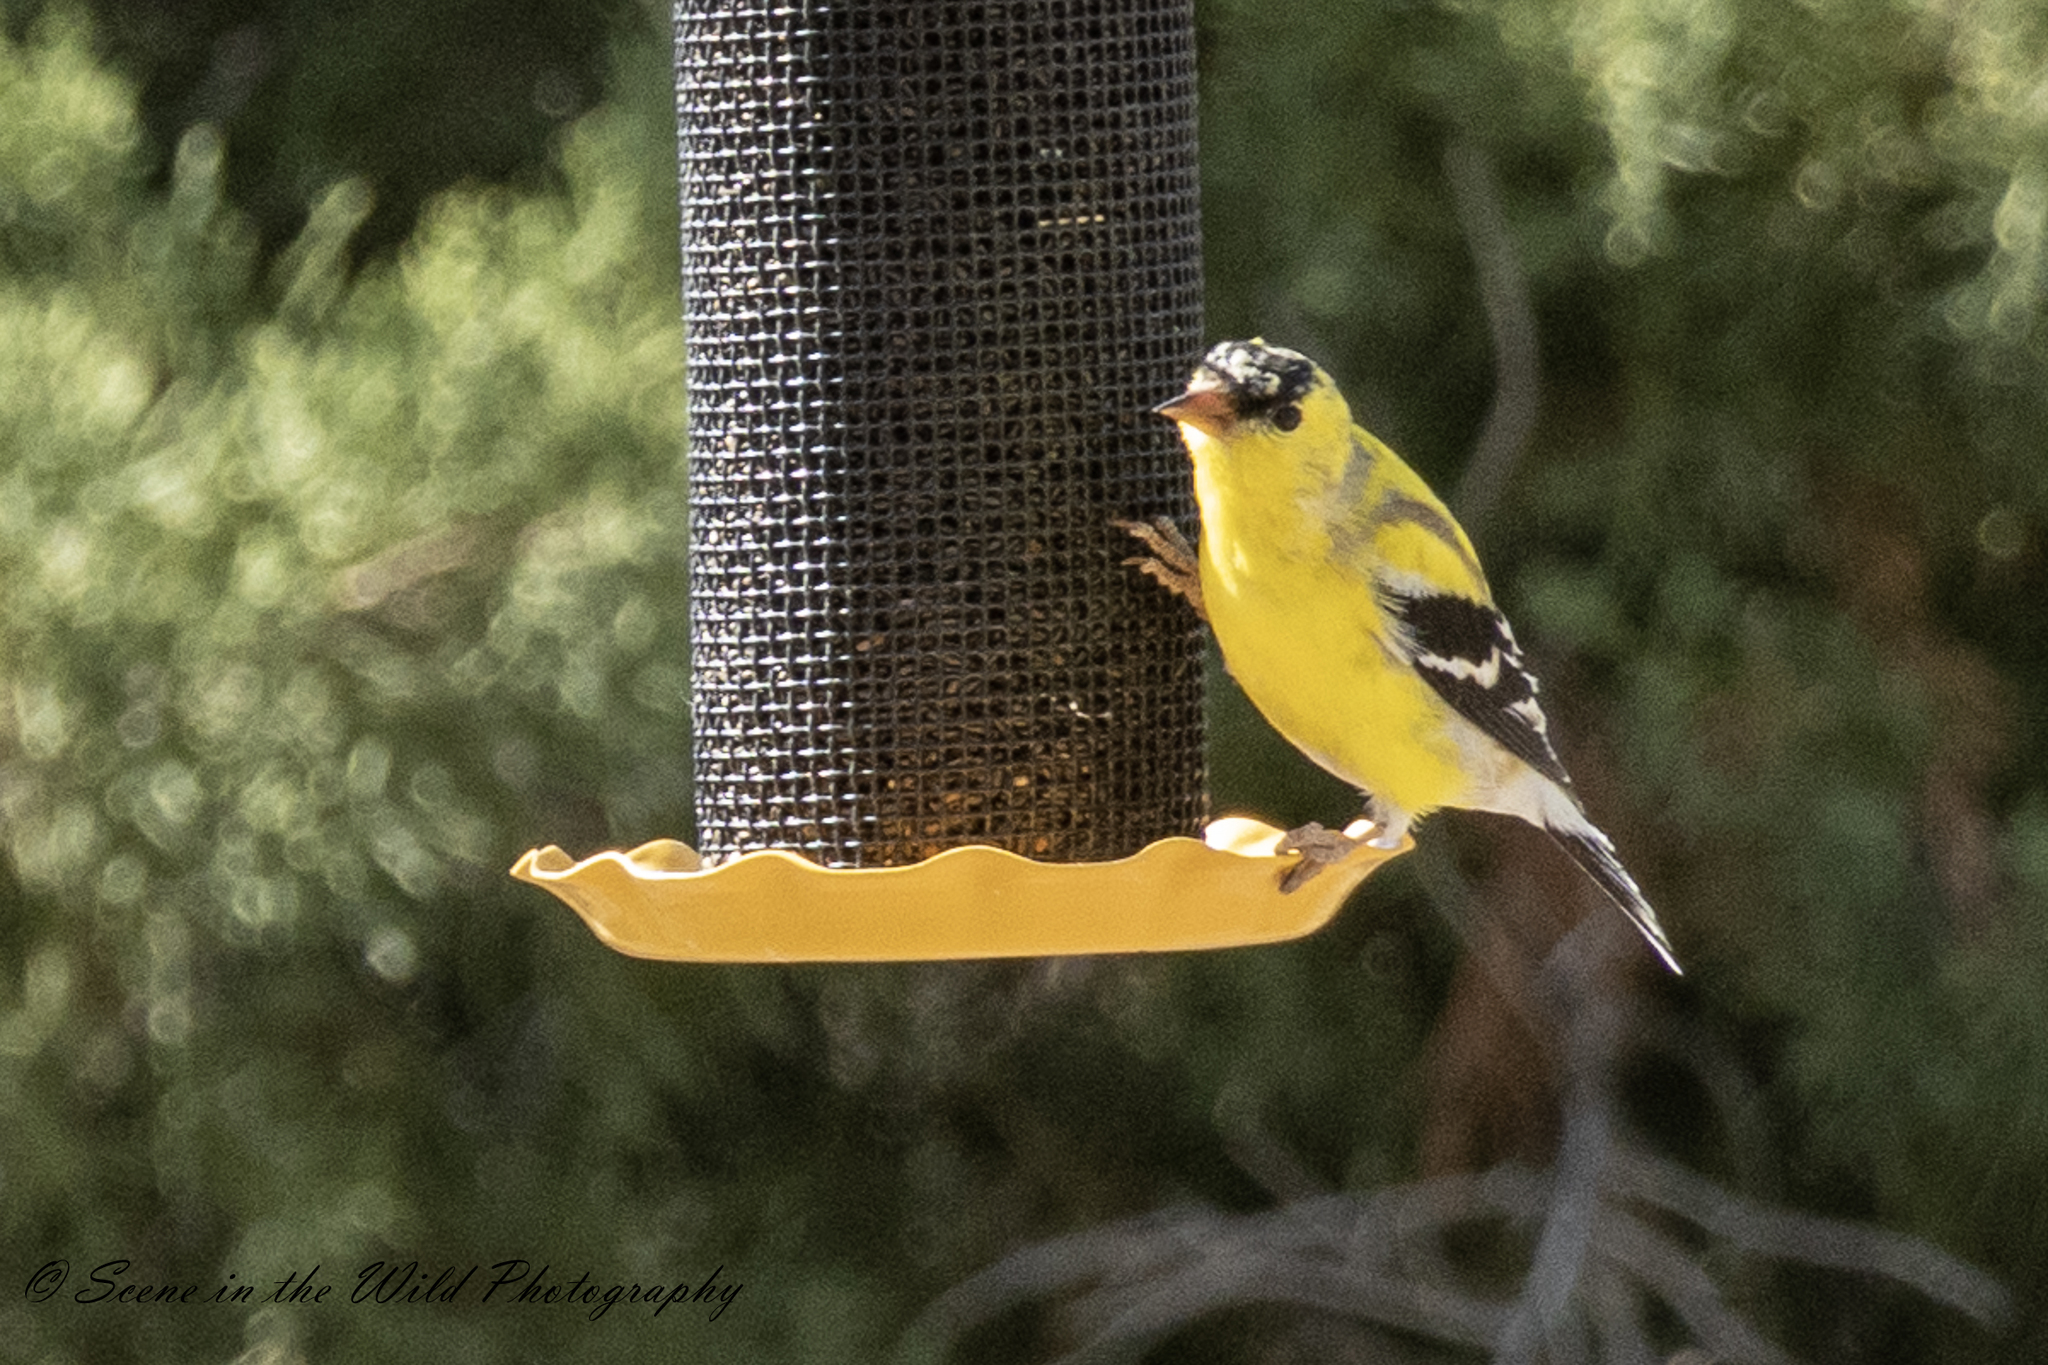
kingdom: Animalia
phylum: Chordata
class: Aves
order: Passeriformes
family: Fringillidae
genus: Spinus
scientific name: Spinus tristis
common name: American goldfinch
